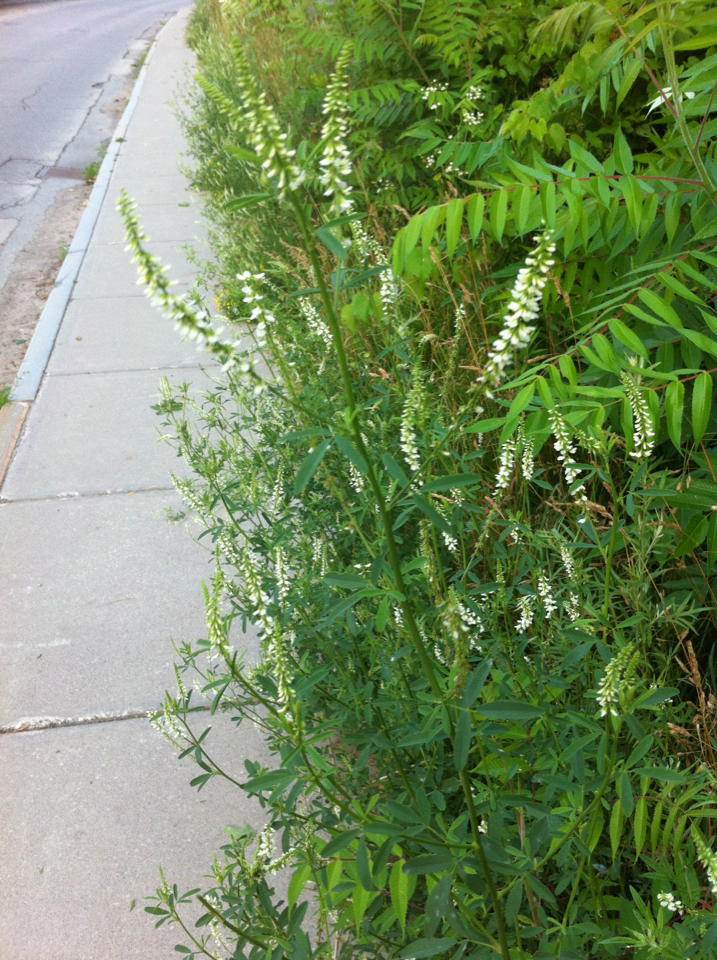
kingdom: Plantae
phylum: Tracheophyta
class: Magnoliopsida
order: Fabales
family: Fabaceae
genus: Melilotus
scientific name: Melilotus albus
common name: White melilot
